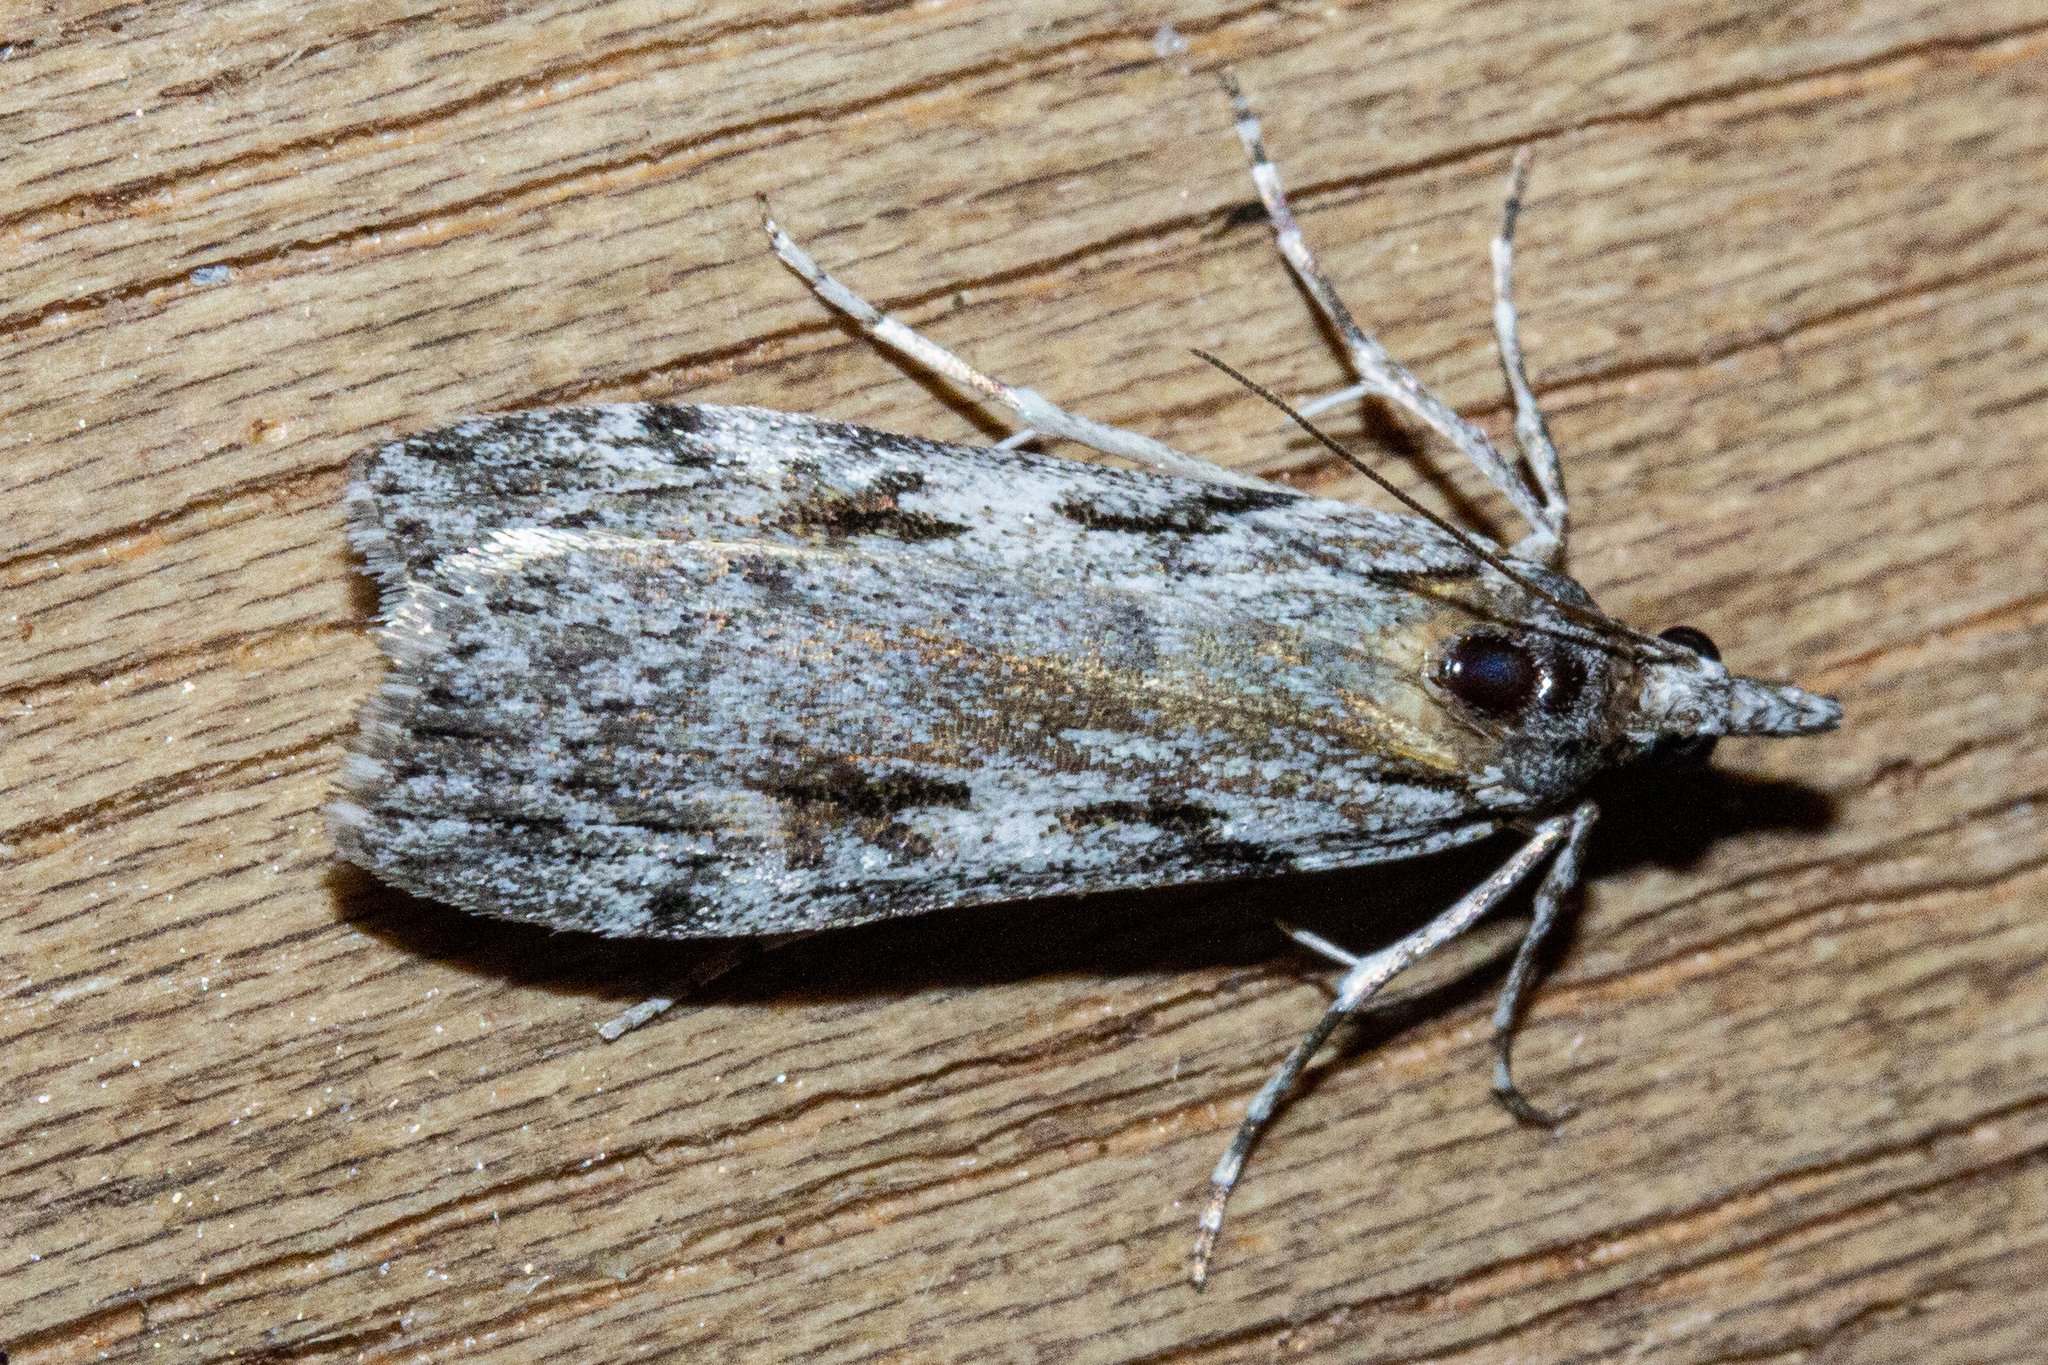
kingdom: Animalia
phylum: Arthropoda
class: Insecta
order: Lepidoptera
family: Crambidae
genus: Scoparia
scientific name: Scoparia halopis
